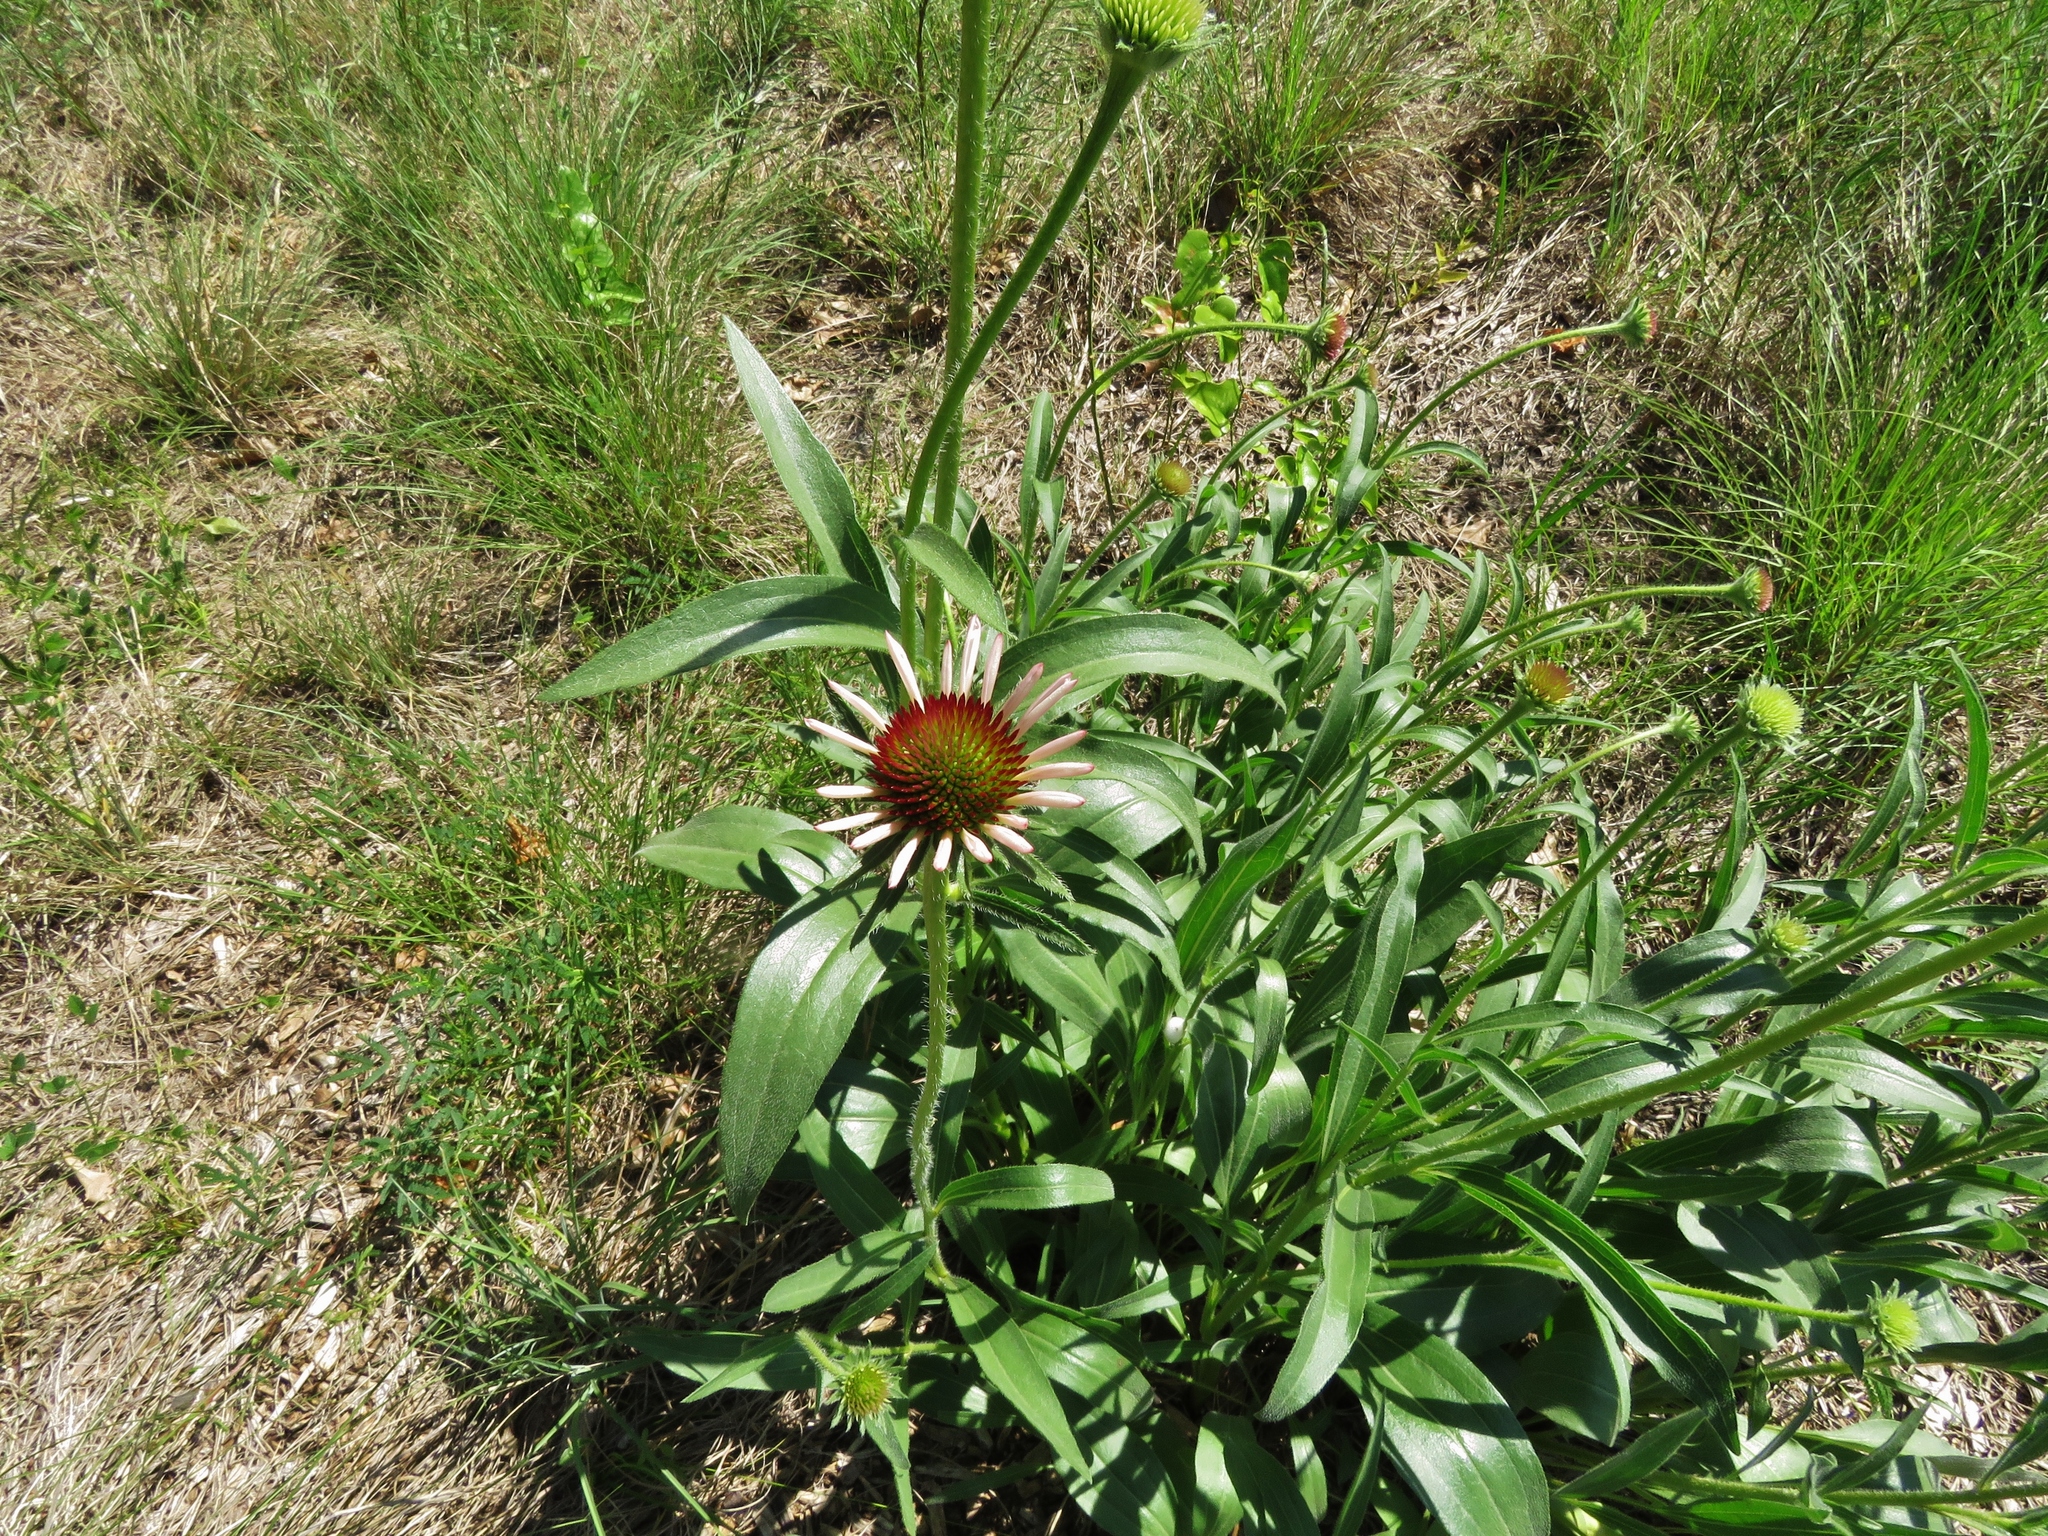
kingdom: Plantae
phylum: Tracheophyta
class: Magnoliopsida
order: Asterales
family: Asteraceae
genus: Echinacea
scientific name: Echinacea angustifolia
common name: Black-sampson echinacea
